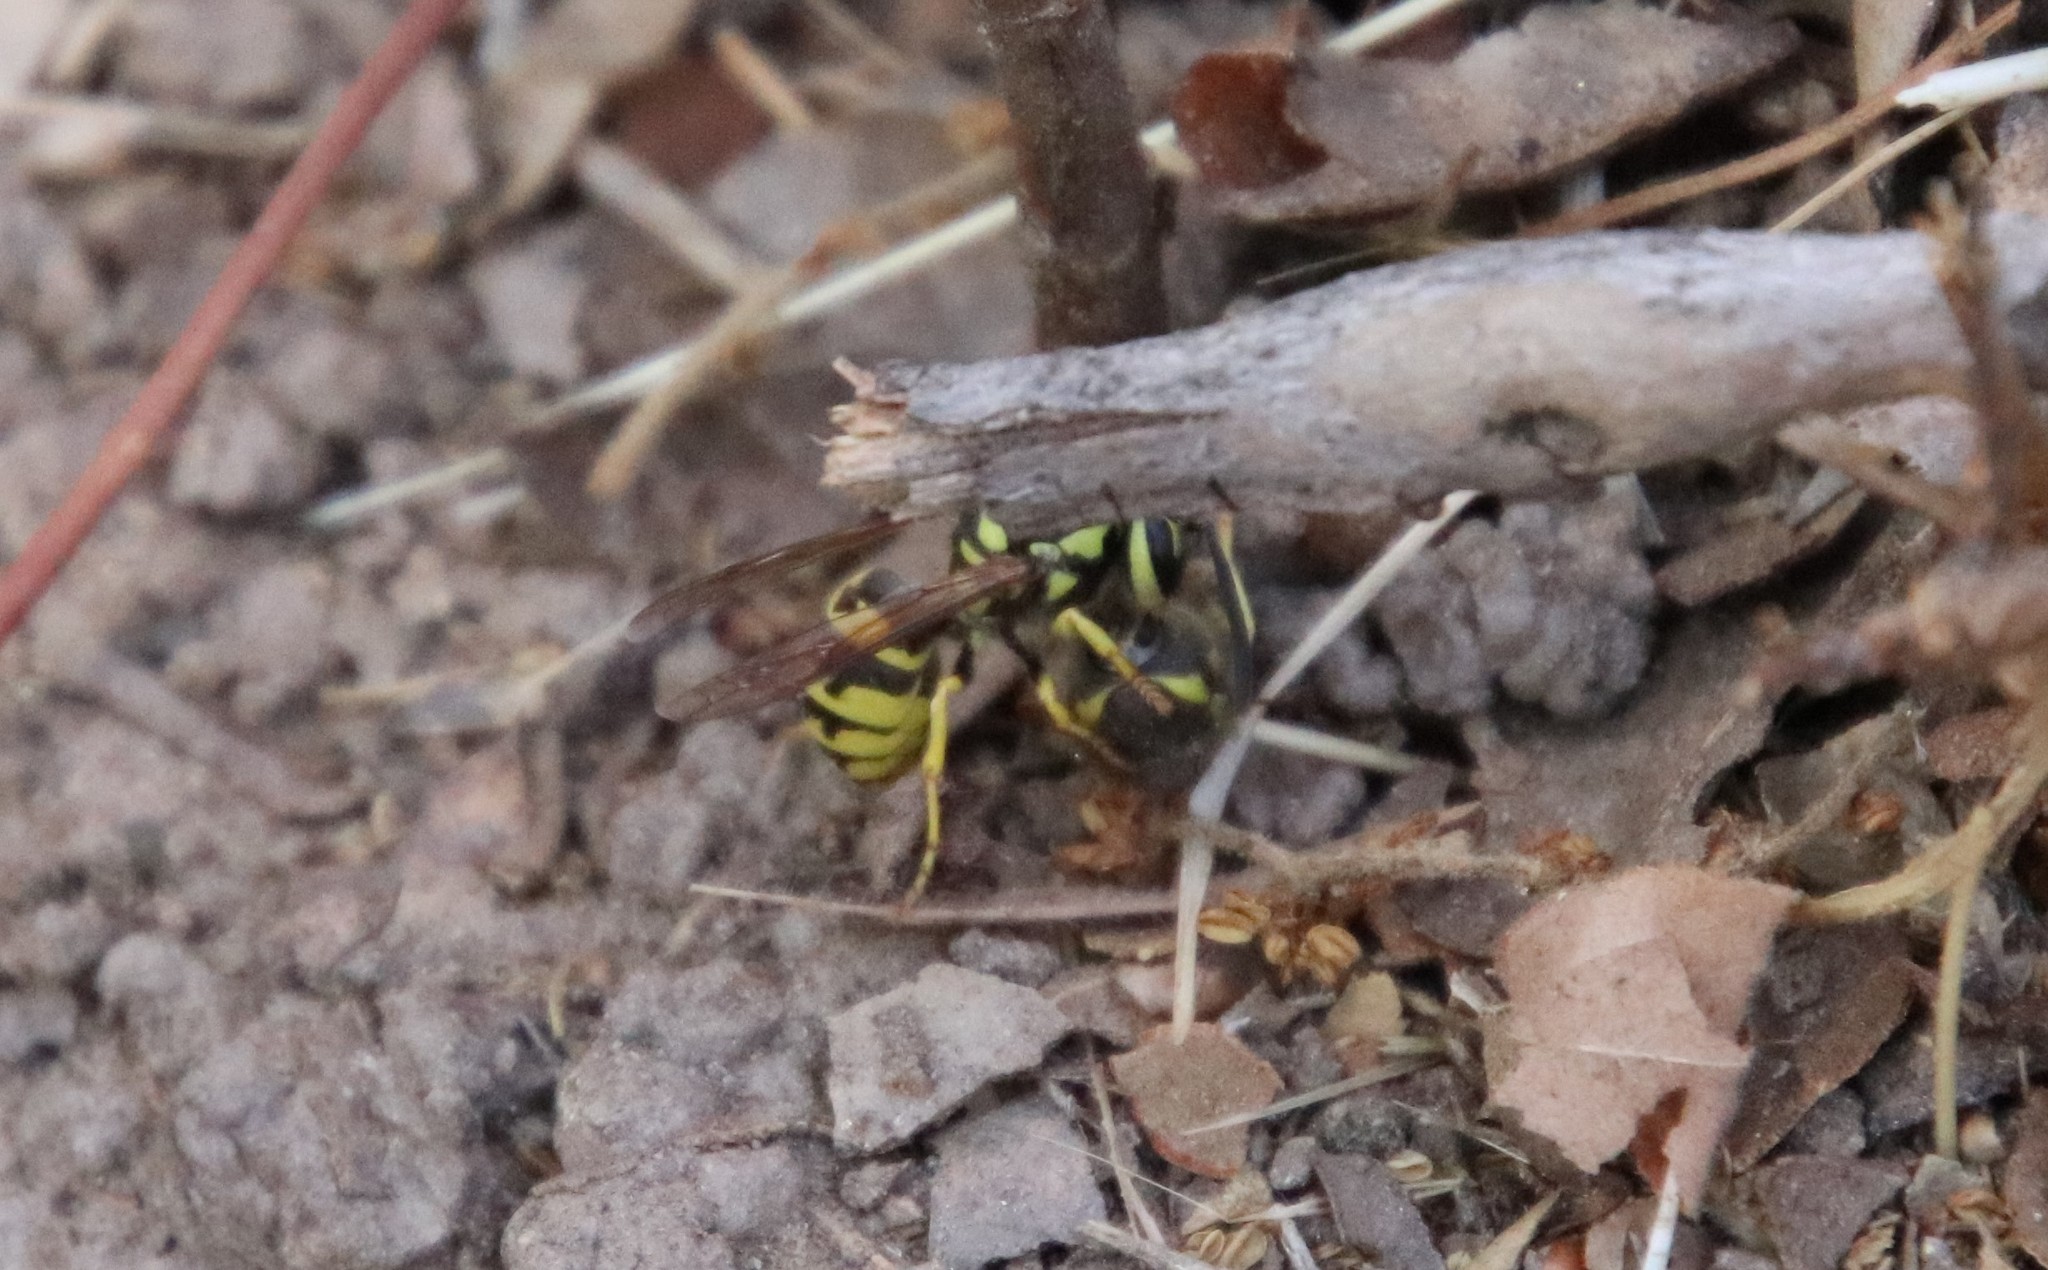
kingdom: Animalia
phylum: Arthropoda
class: Insecta
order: Hymenoptera
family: Vespidae
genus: Vespula
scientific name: Vespula pensylvanica
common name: Western yellowjacket
